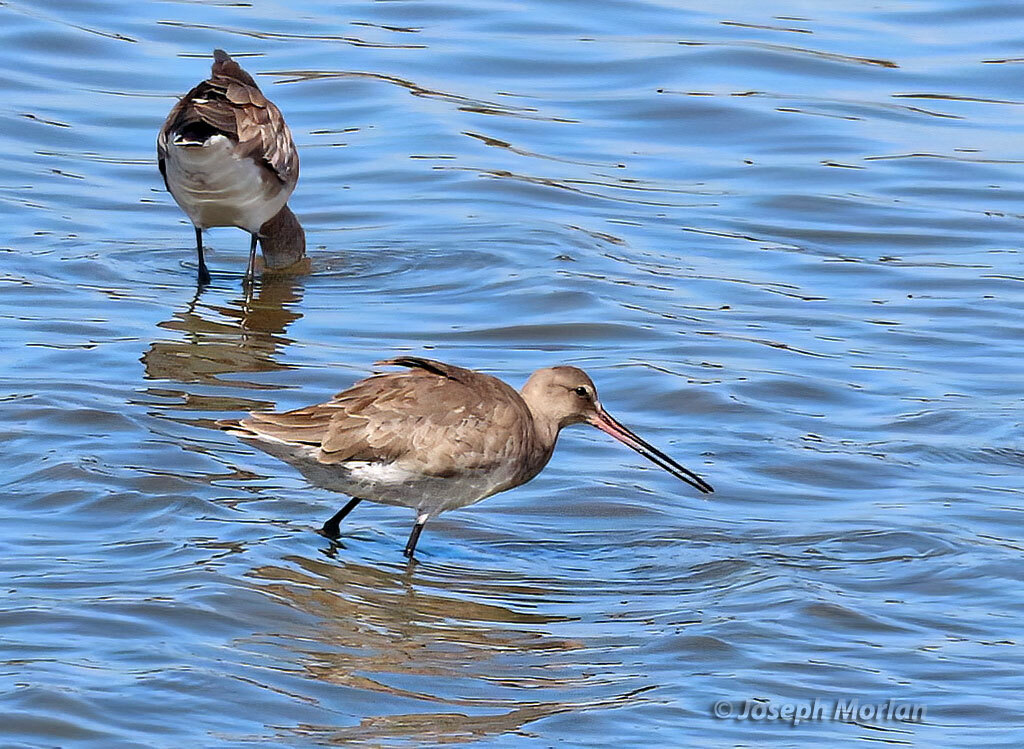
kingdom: Animalia
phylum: Chordata
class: Aves
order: Charadriiformes
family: Scolopacidae
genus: Limosa
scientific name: Limosa haemastica
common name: Hudsonian godwit
